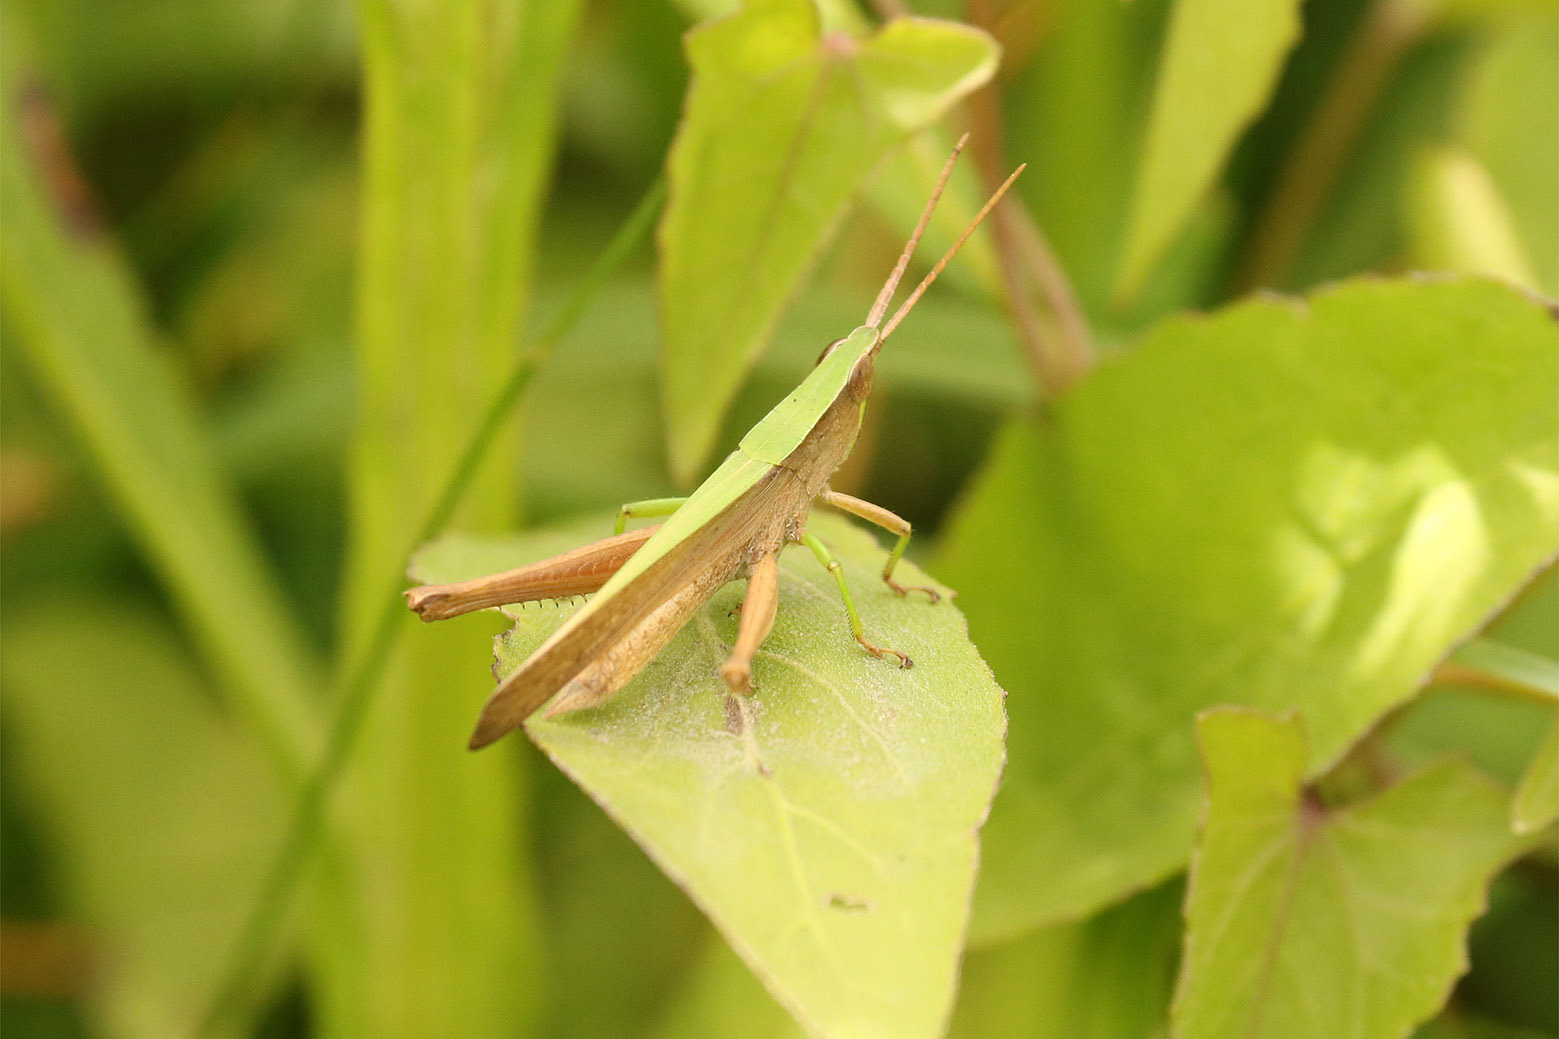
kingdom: Animalia
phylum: Arthropoda
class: Insecta
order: Orthoptera
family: Acrididae
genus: Metaleptea
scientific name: Metaleptea adspersa
